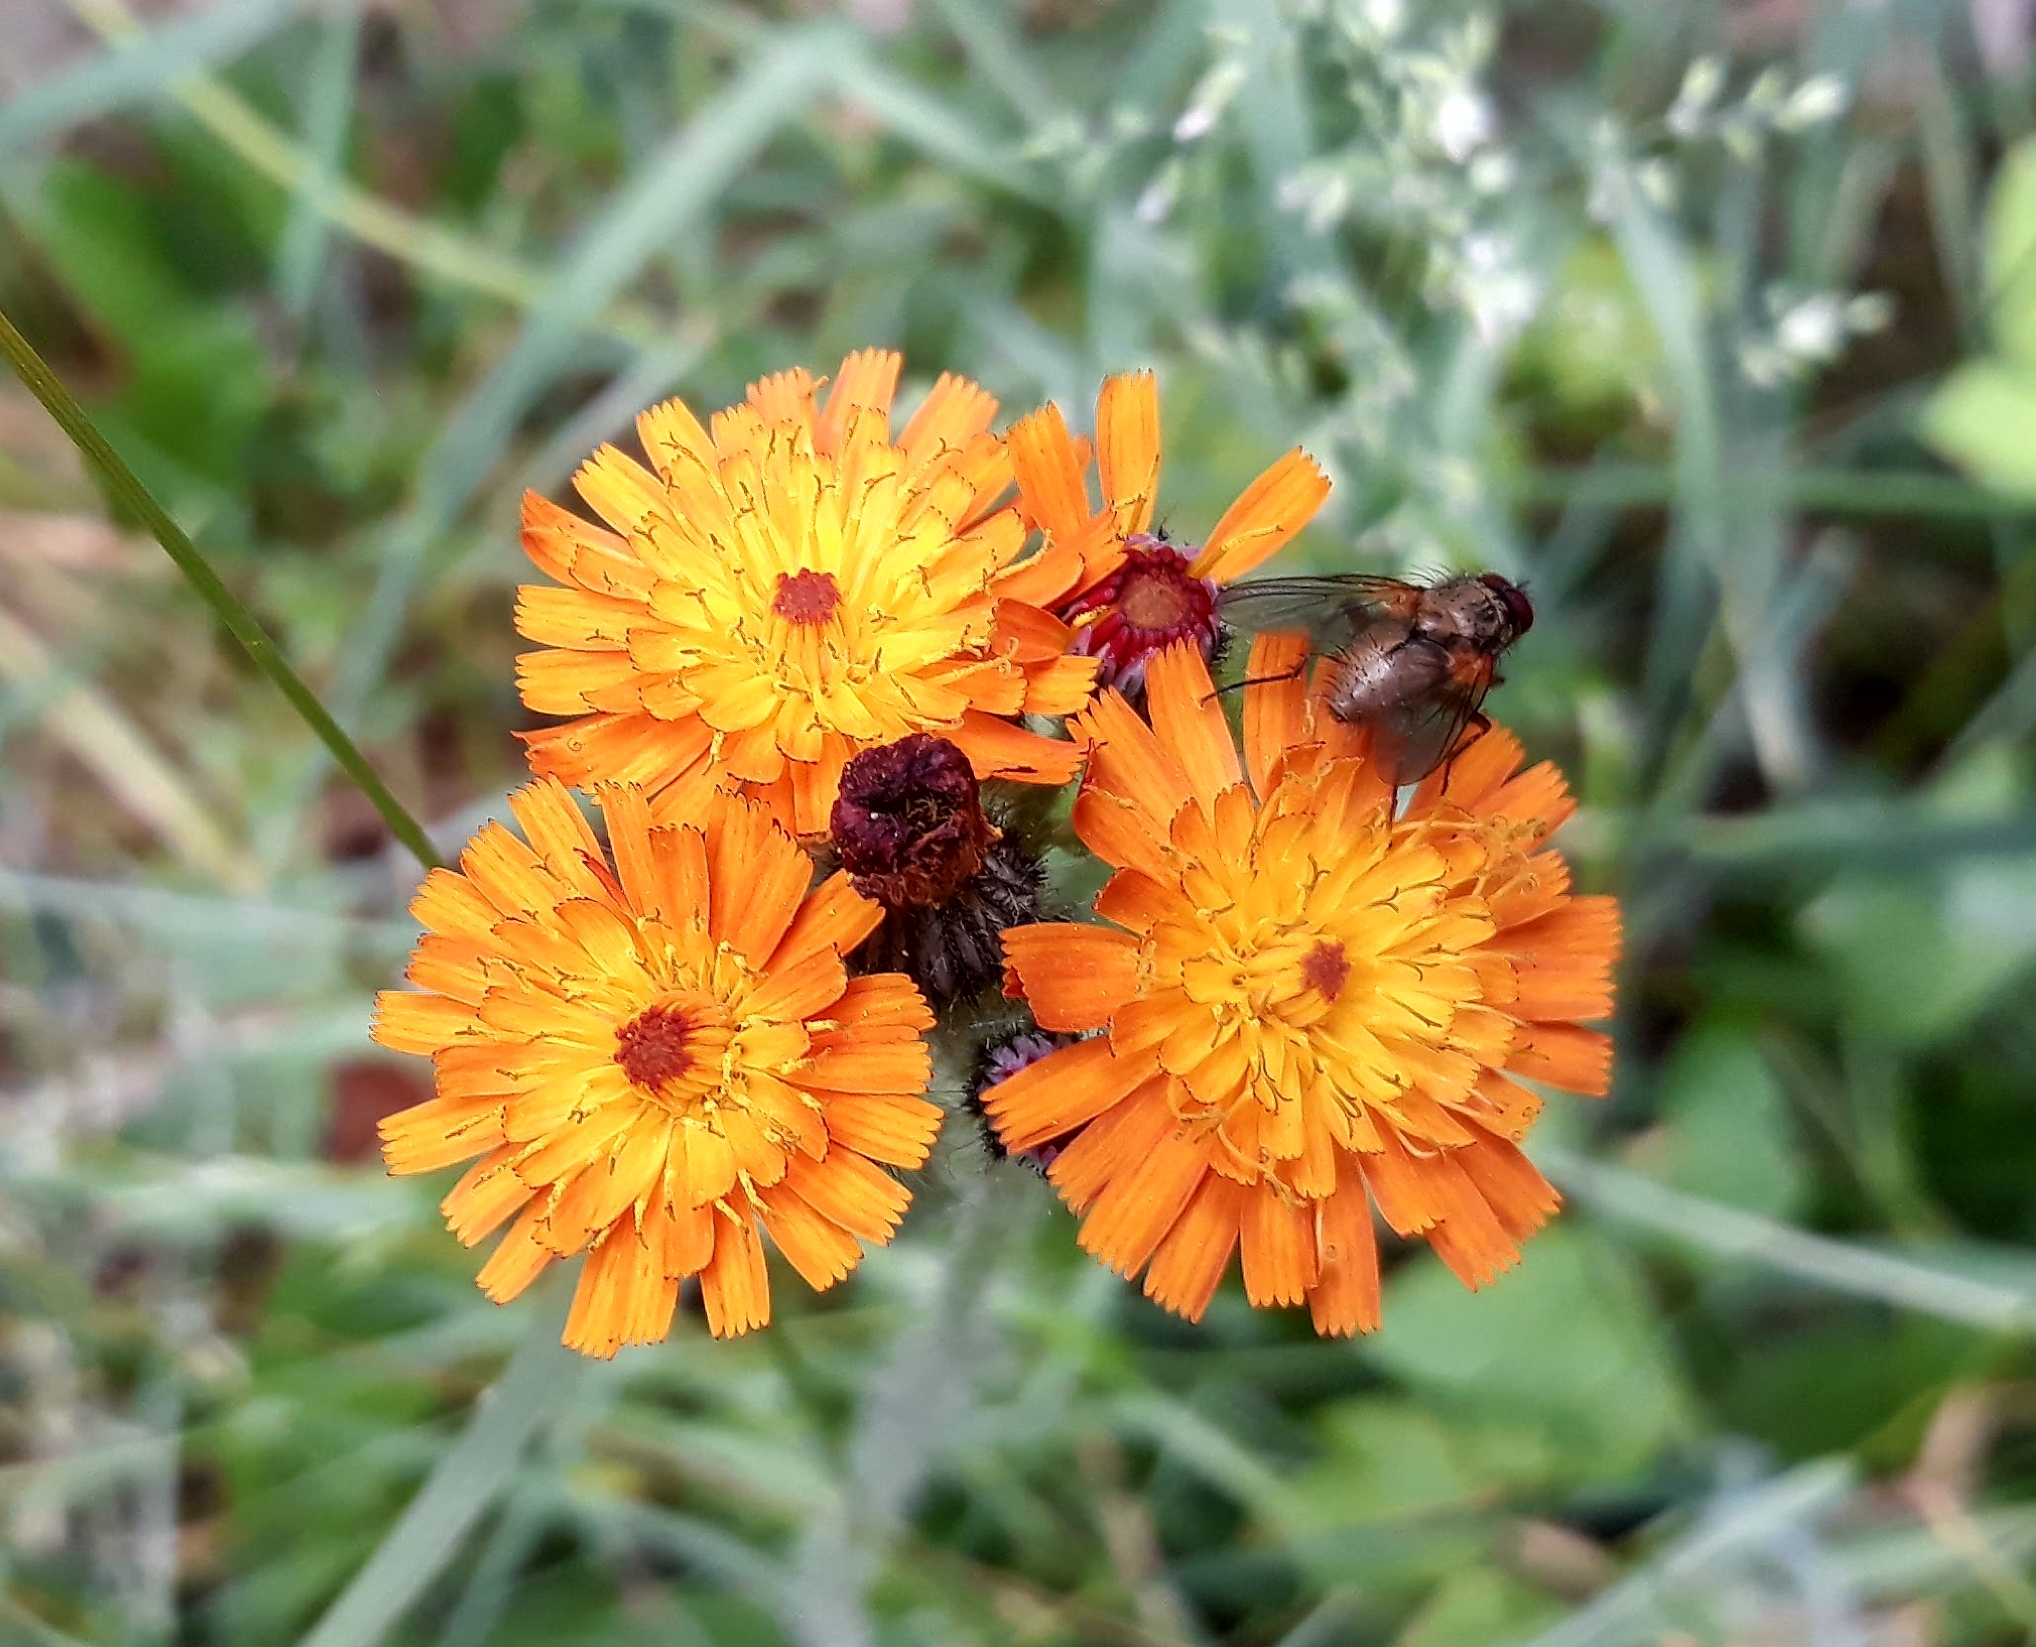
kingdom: Plantae
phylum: Tracheophyta
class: Magnoliopsida
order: Asterales
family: Asteraceae
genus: Pilosella
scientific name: Pilosella aurantiaca
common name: Fox-and-cubs
